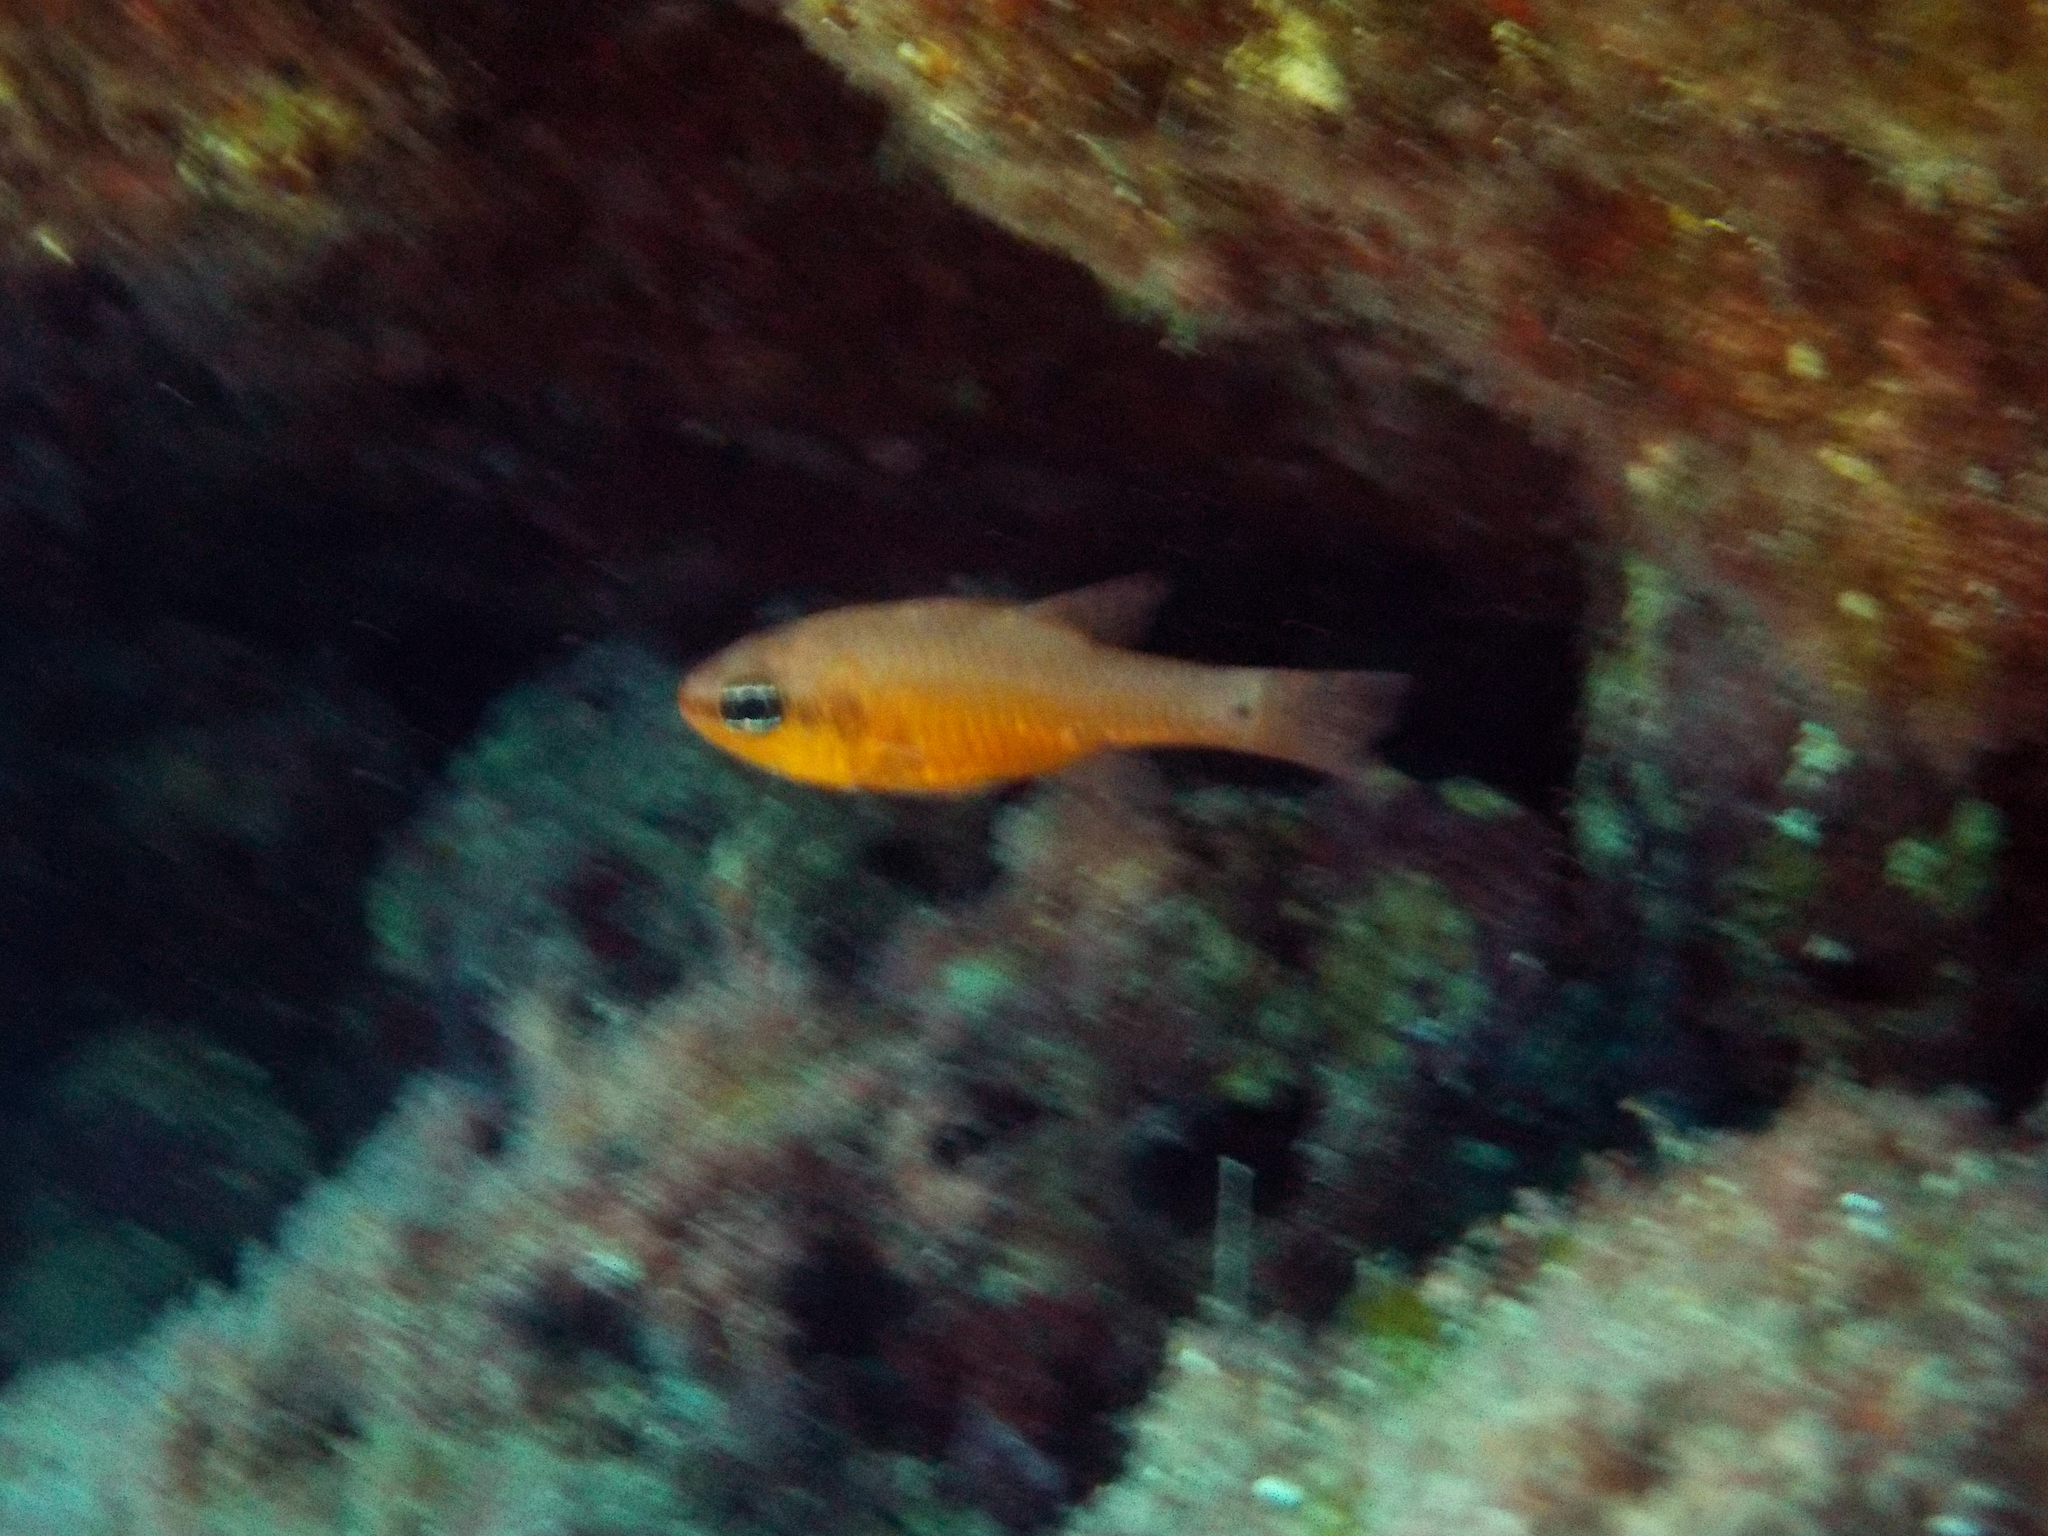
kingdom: Animalia
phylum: Chordata
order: Perciformes
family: Apogonidae
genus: Apogon
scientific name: Apogon imberbis
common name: Cardinal fish
